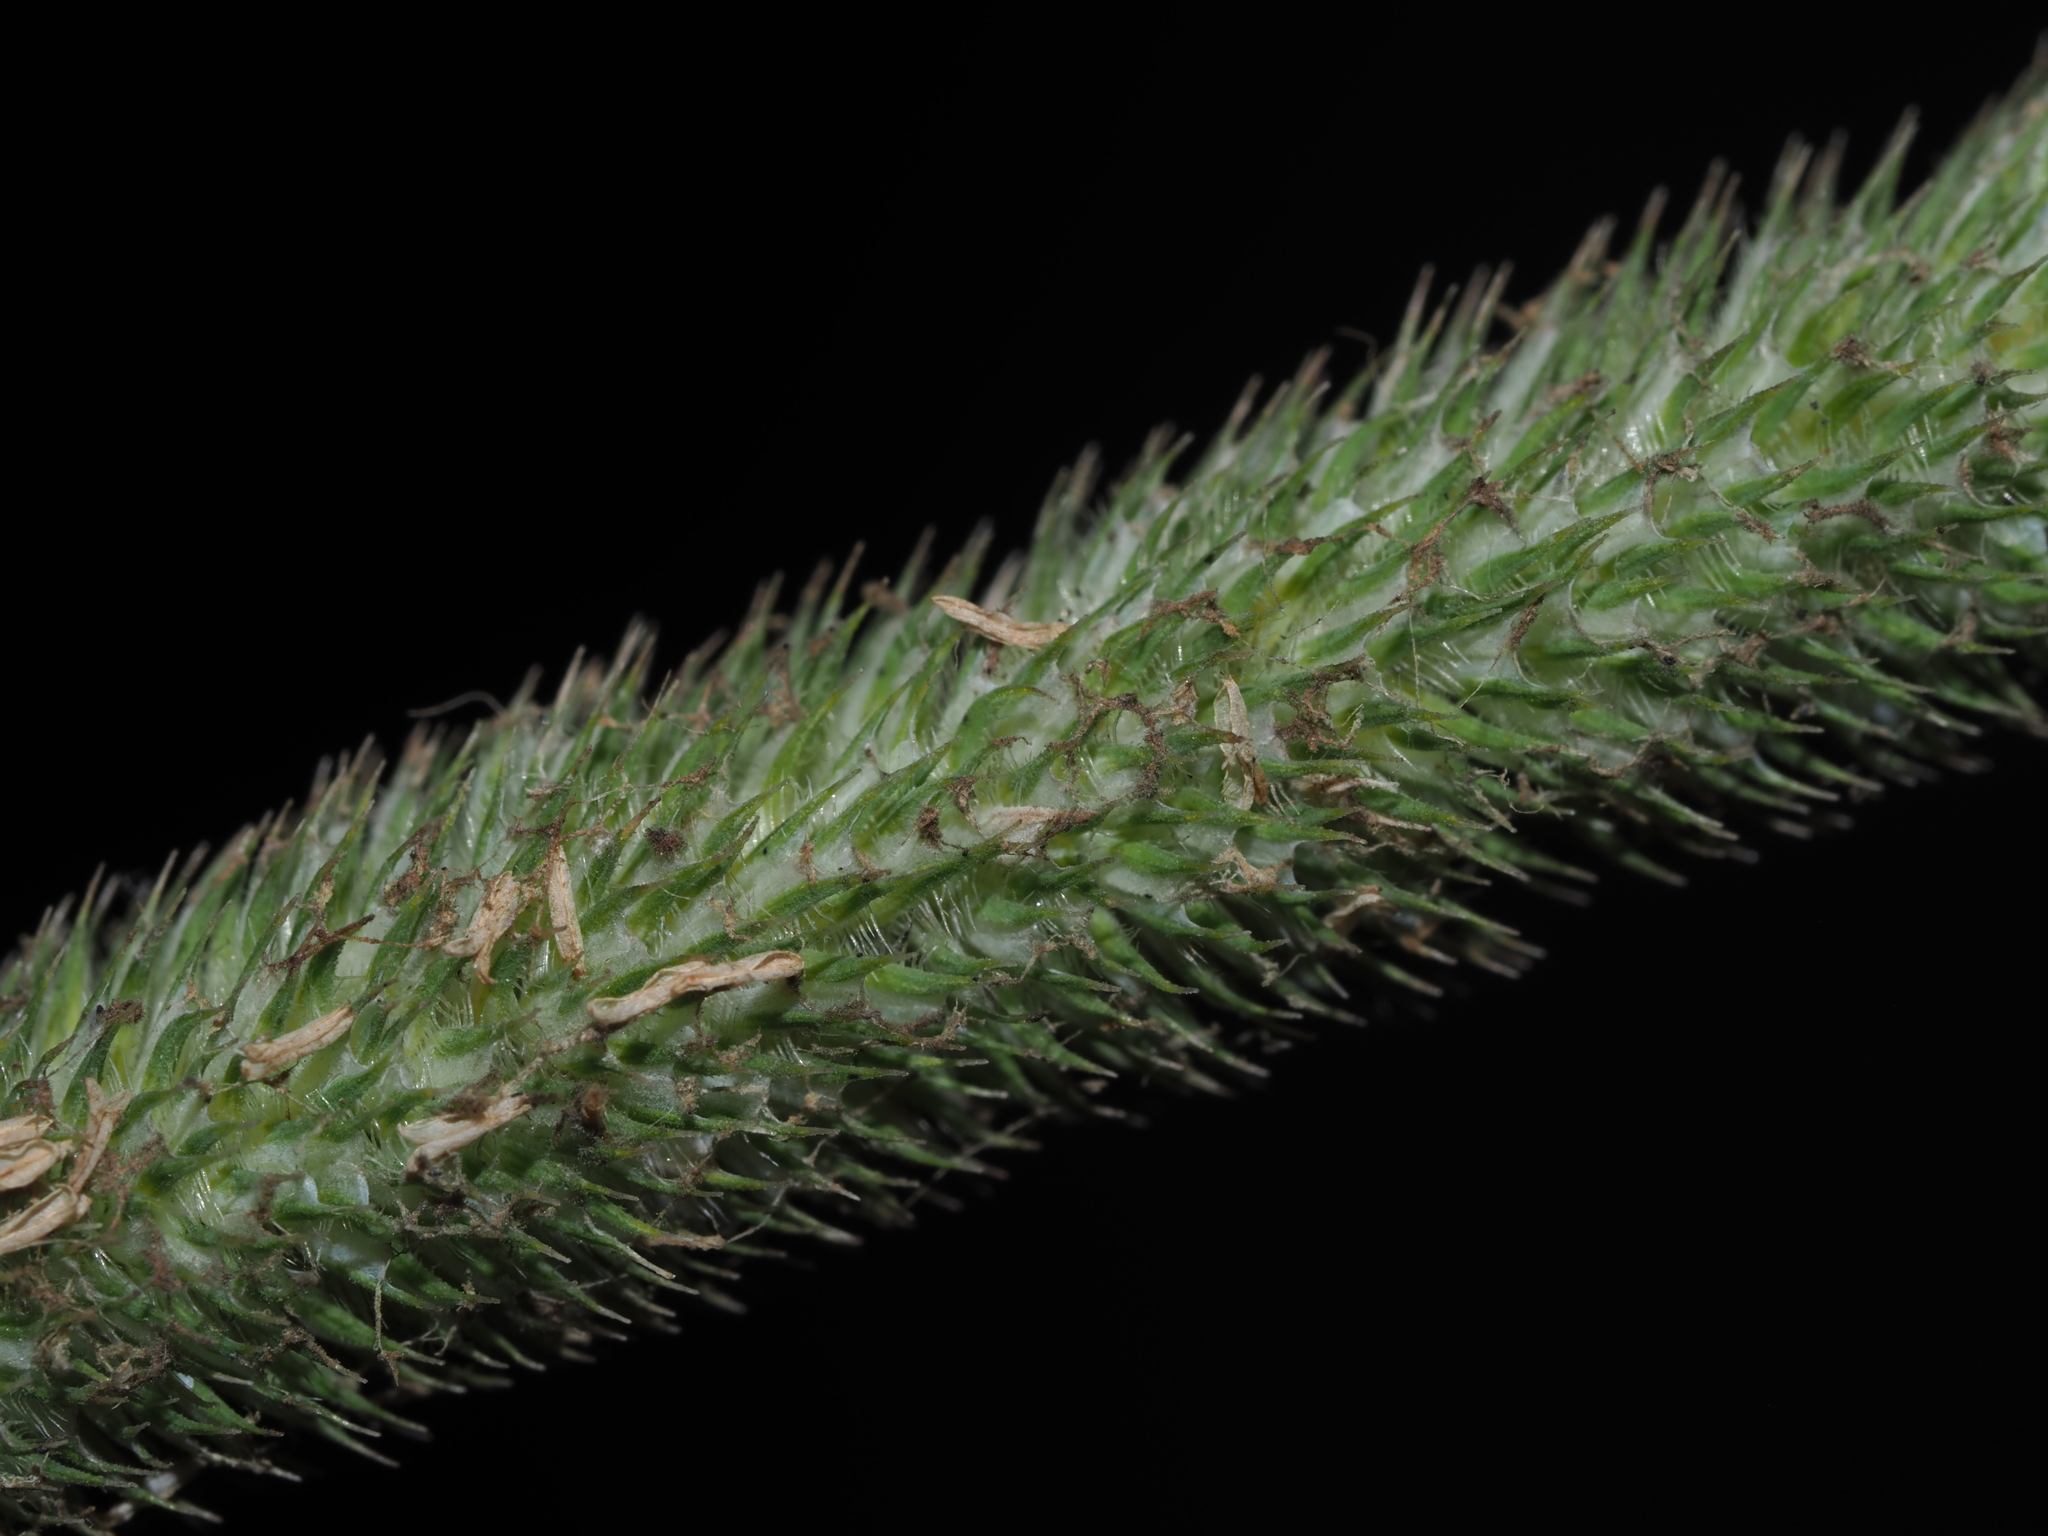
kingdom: Plantae
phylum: Tracheophyta
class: Liliopsida
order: Poales
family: Poaceae
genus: Phleum
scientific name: Phleum pratense
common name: Timothy grass
